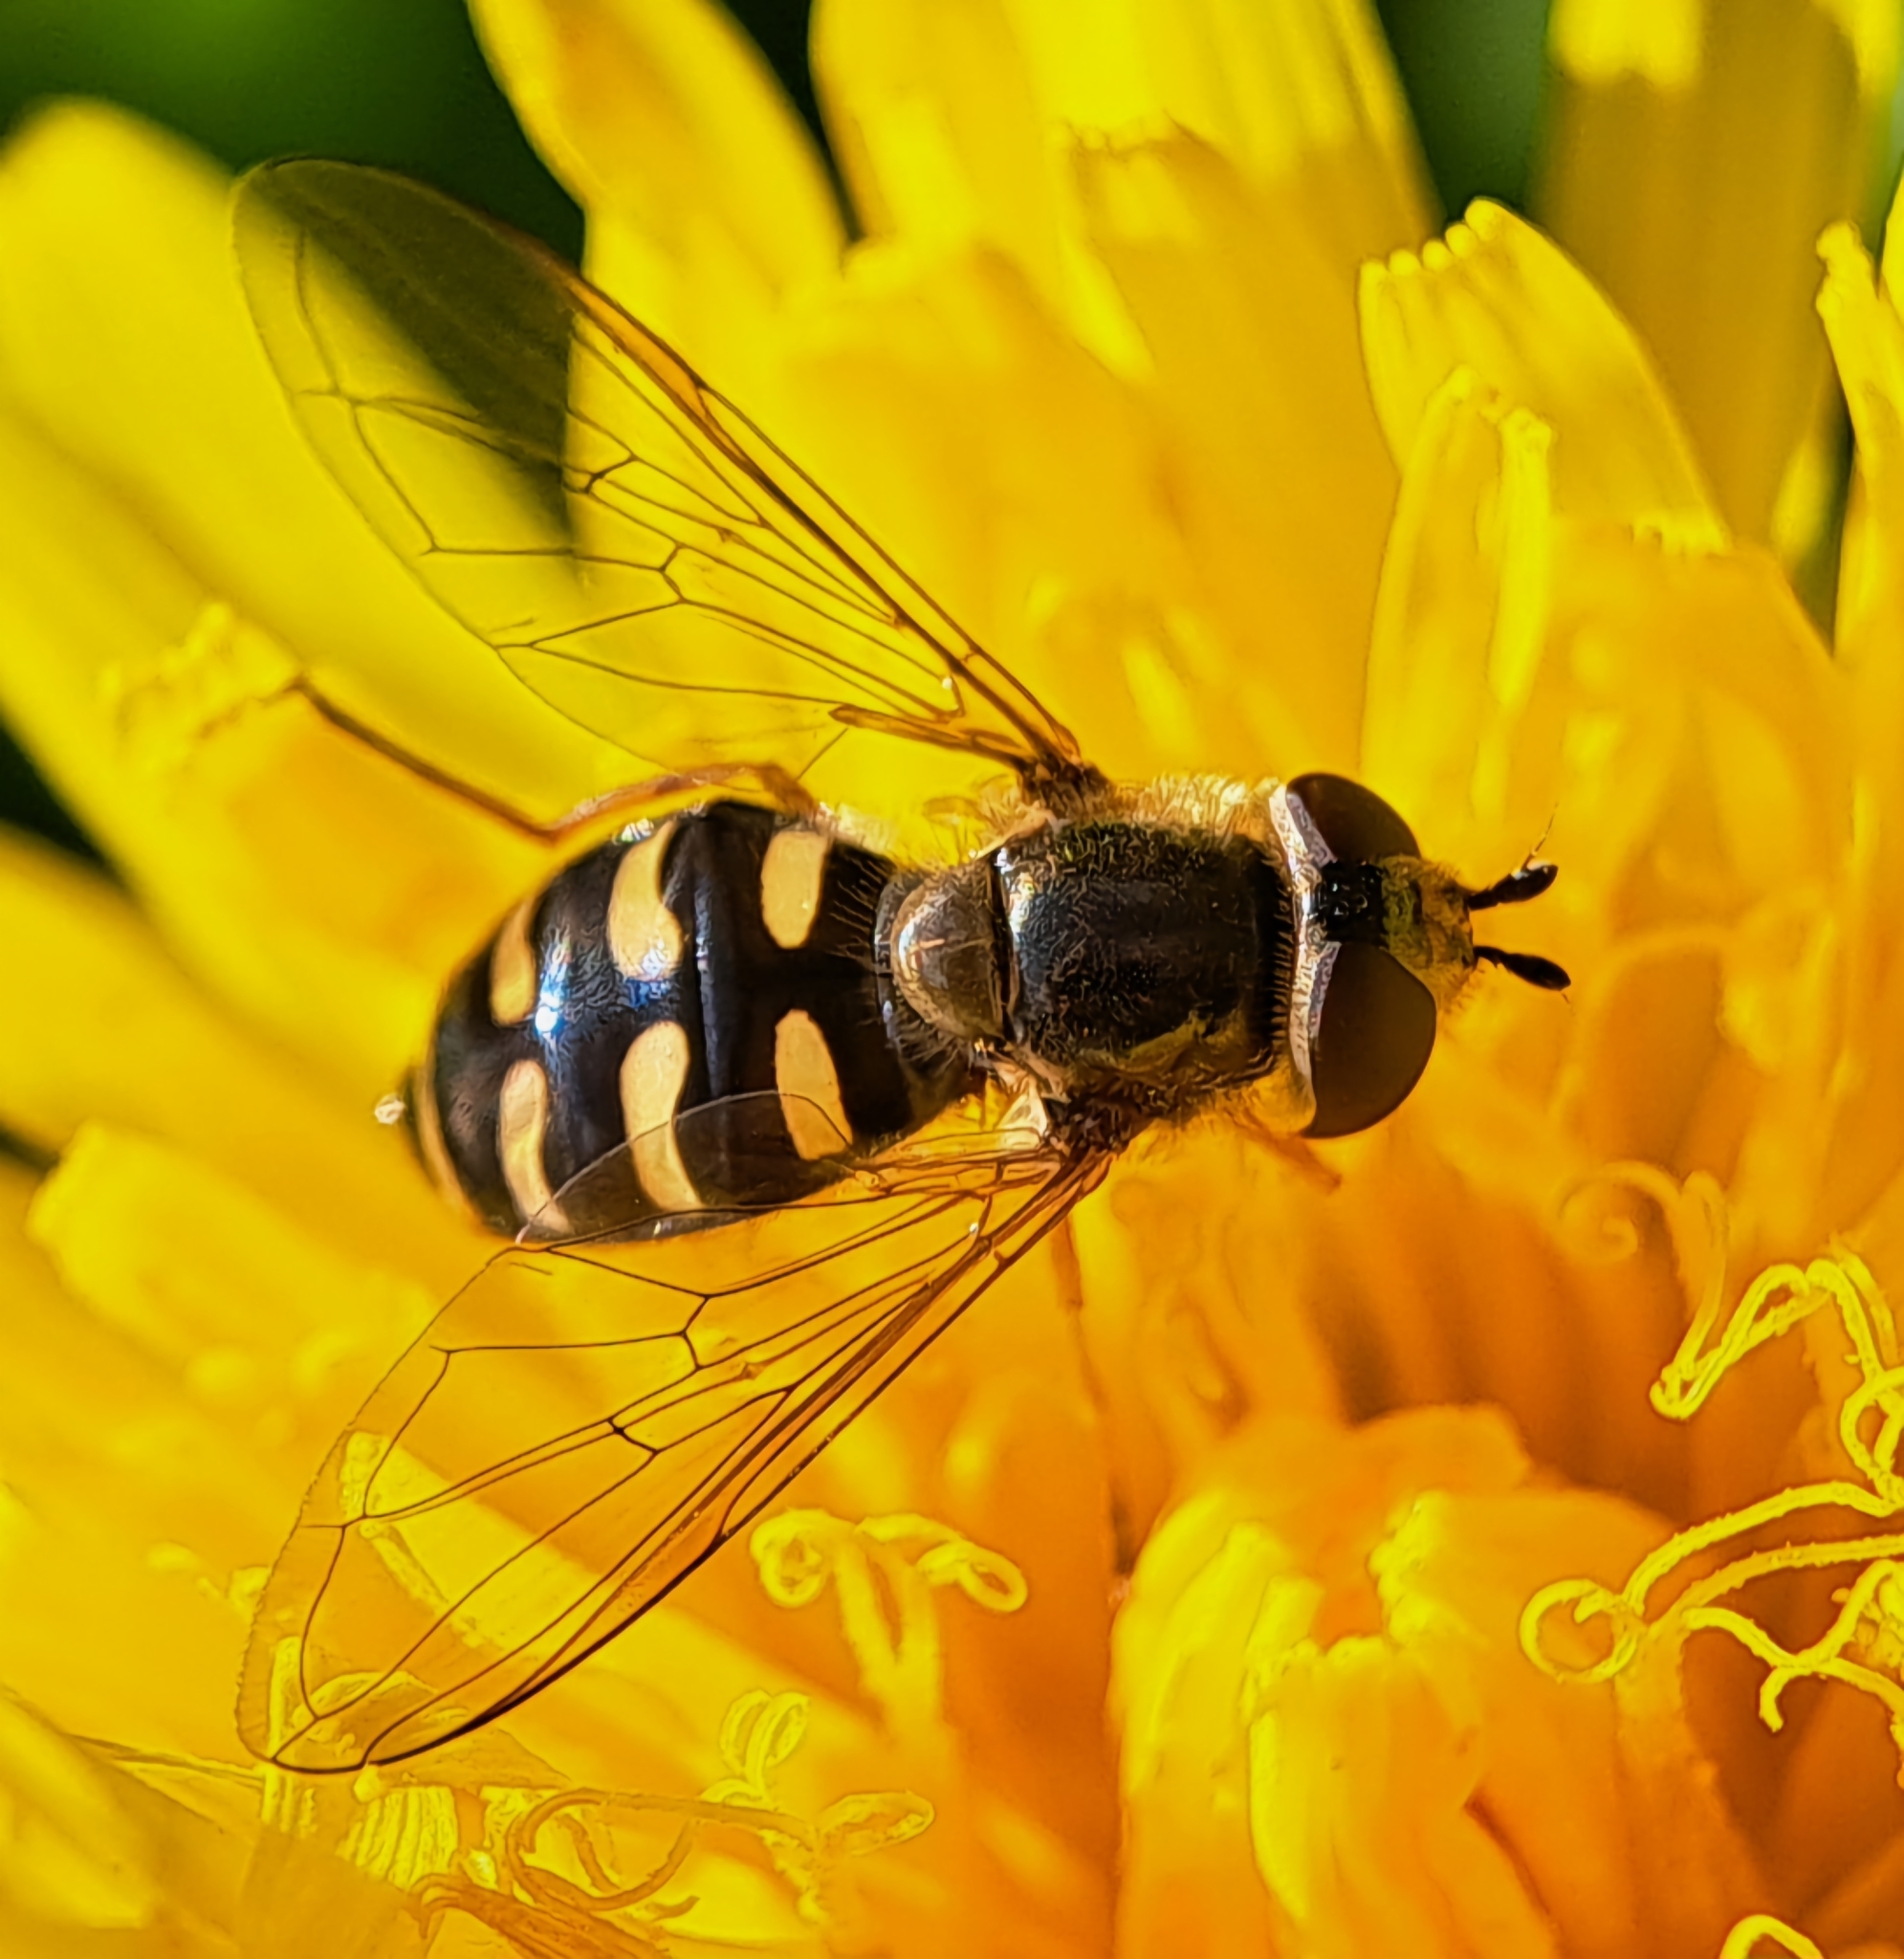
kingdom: Animalia
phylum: Arthropoda
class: Insecta
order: Diptera
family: Syrphidae
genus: Eupeodes
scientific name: Eupeodes
